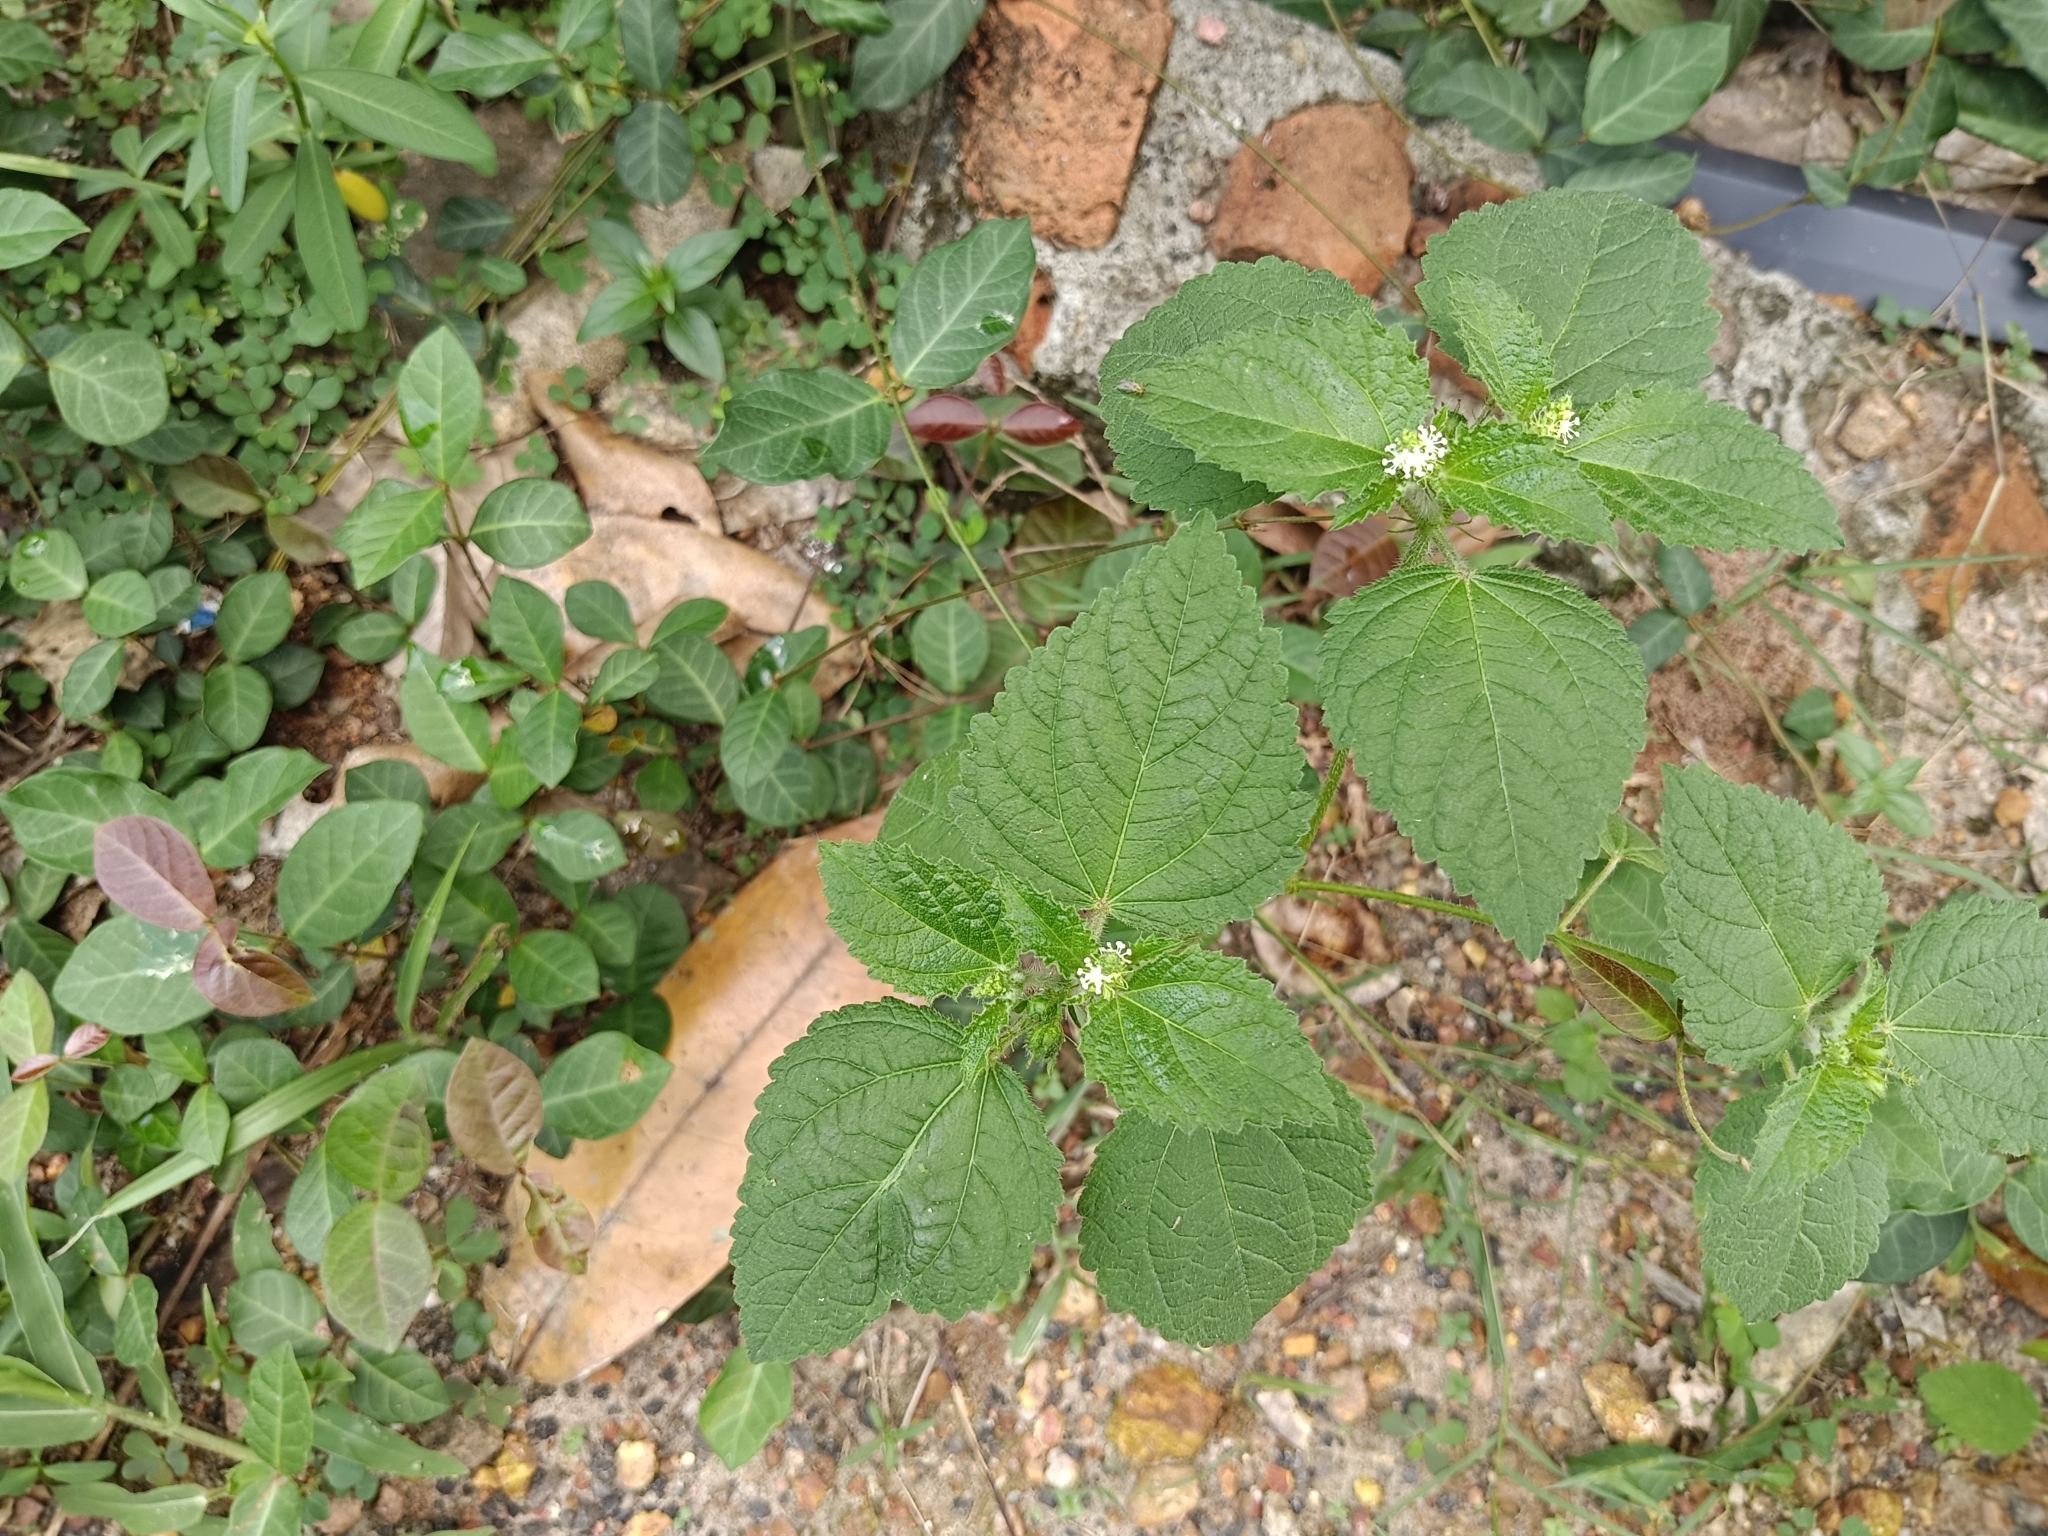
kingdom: Plantae
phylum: Tracheophyta
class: Magnoliopsida
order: Malpighiales
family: Euphorbiaceae
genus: Croton
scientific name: Croton hirtus
